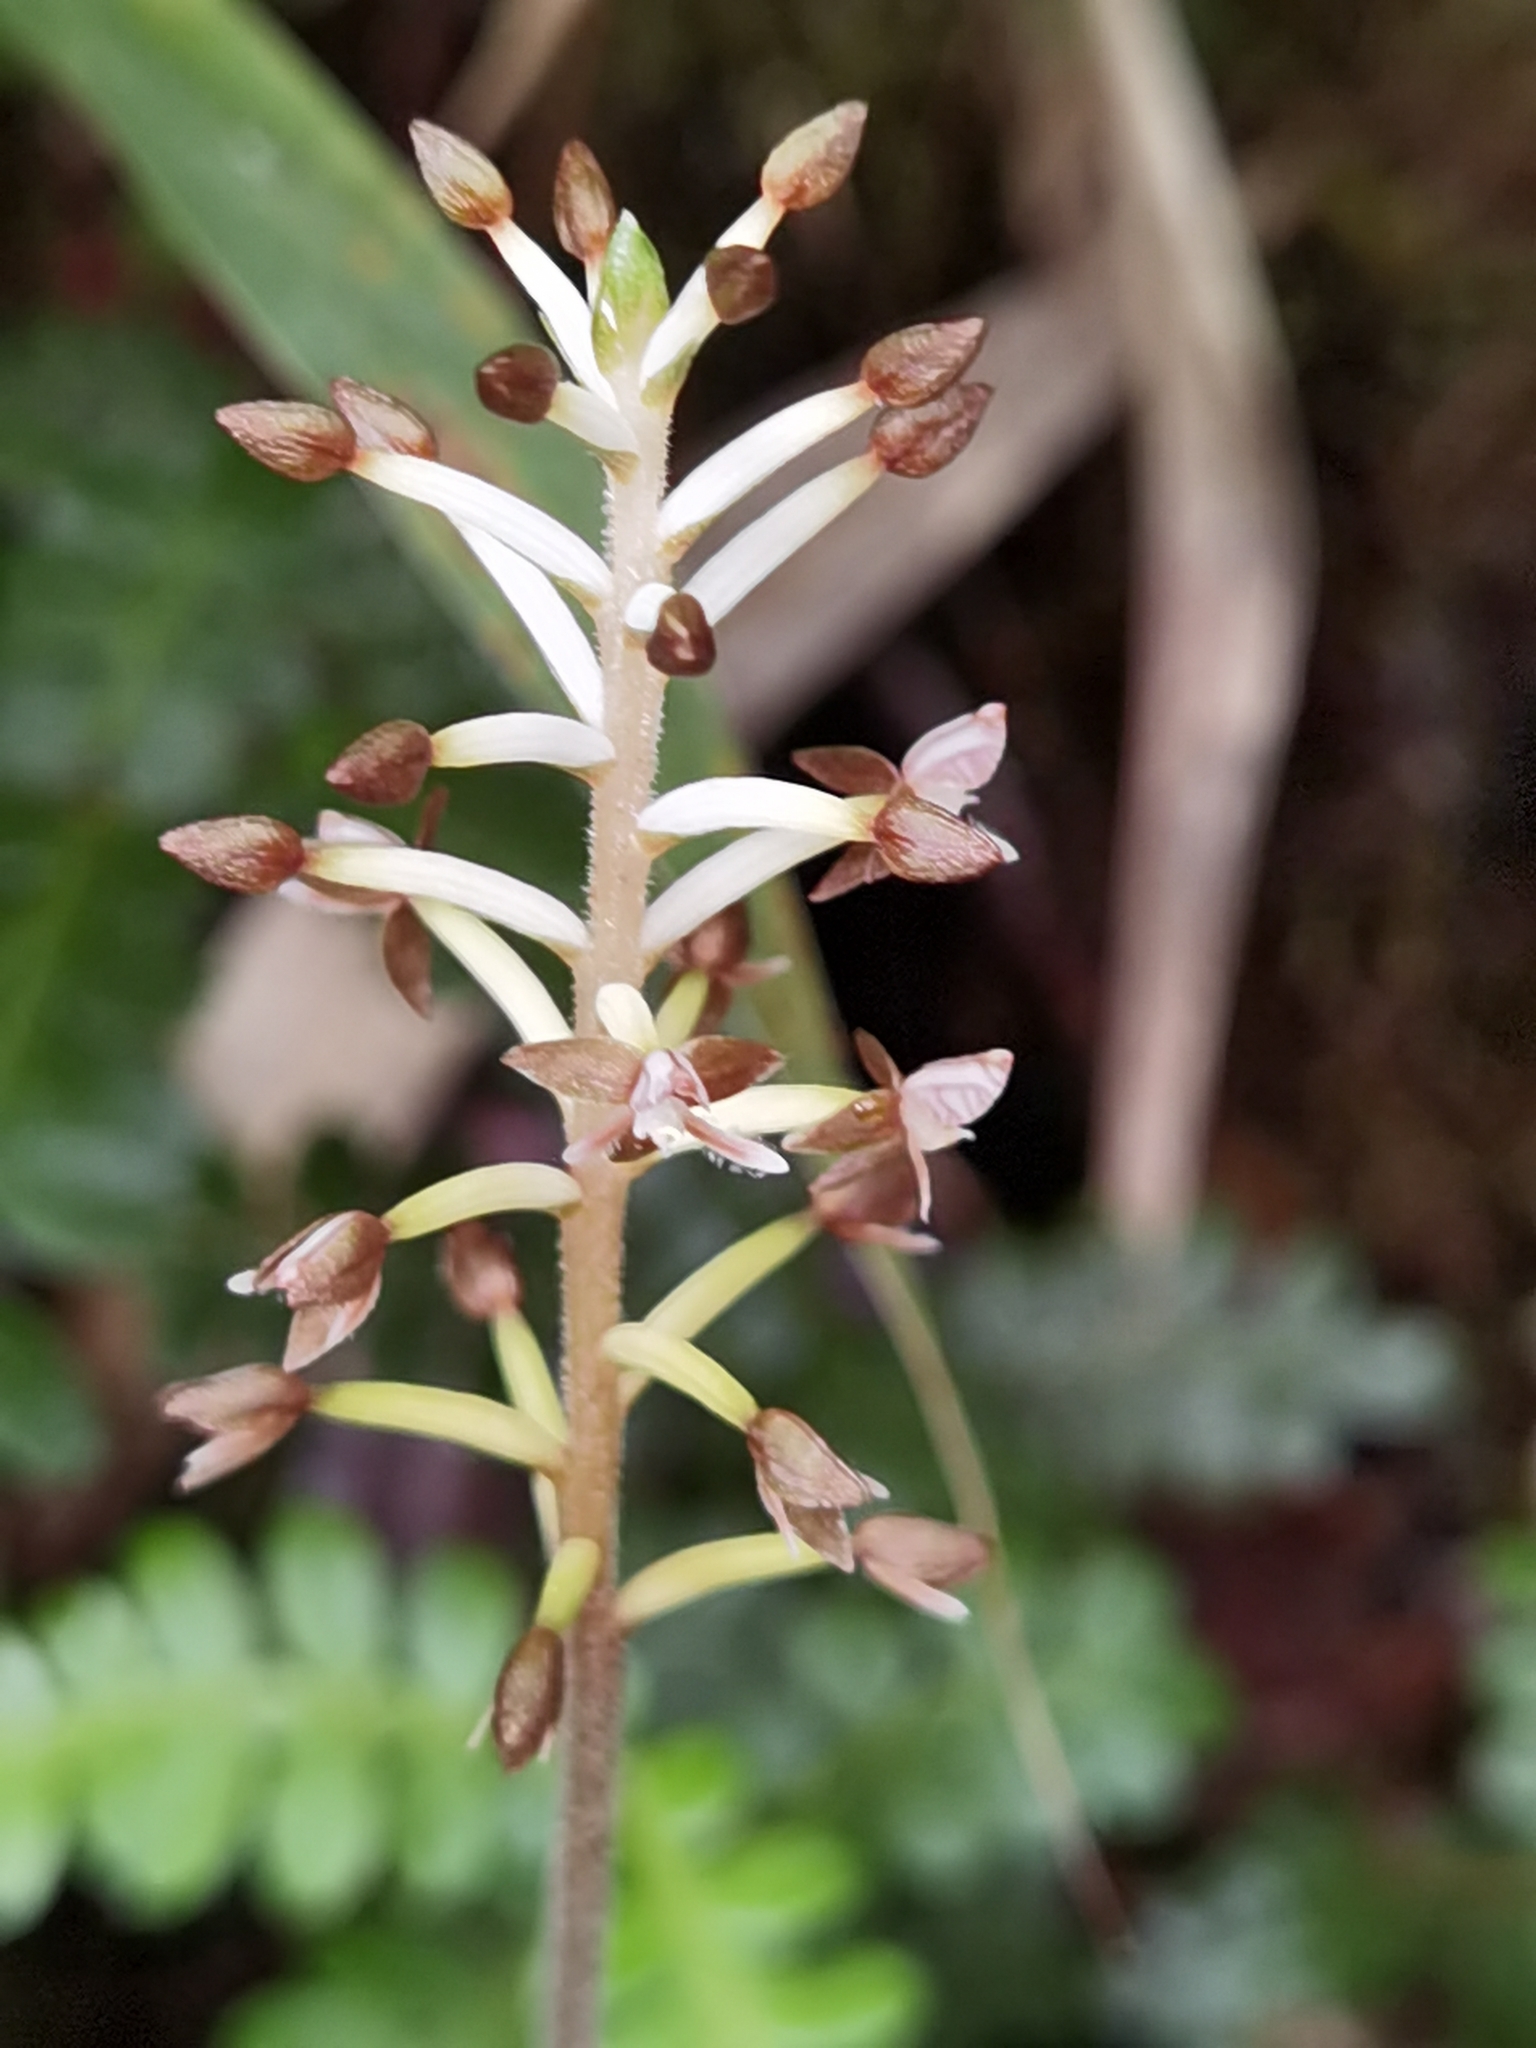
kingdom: Plantae
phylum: Tracheophyta
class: Liliopsida
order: Asparagales
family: Orchidaceae
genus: Cranichis
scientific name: Cranichis ciliata
